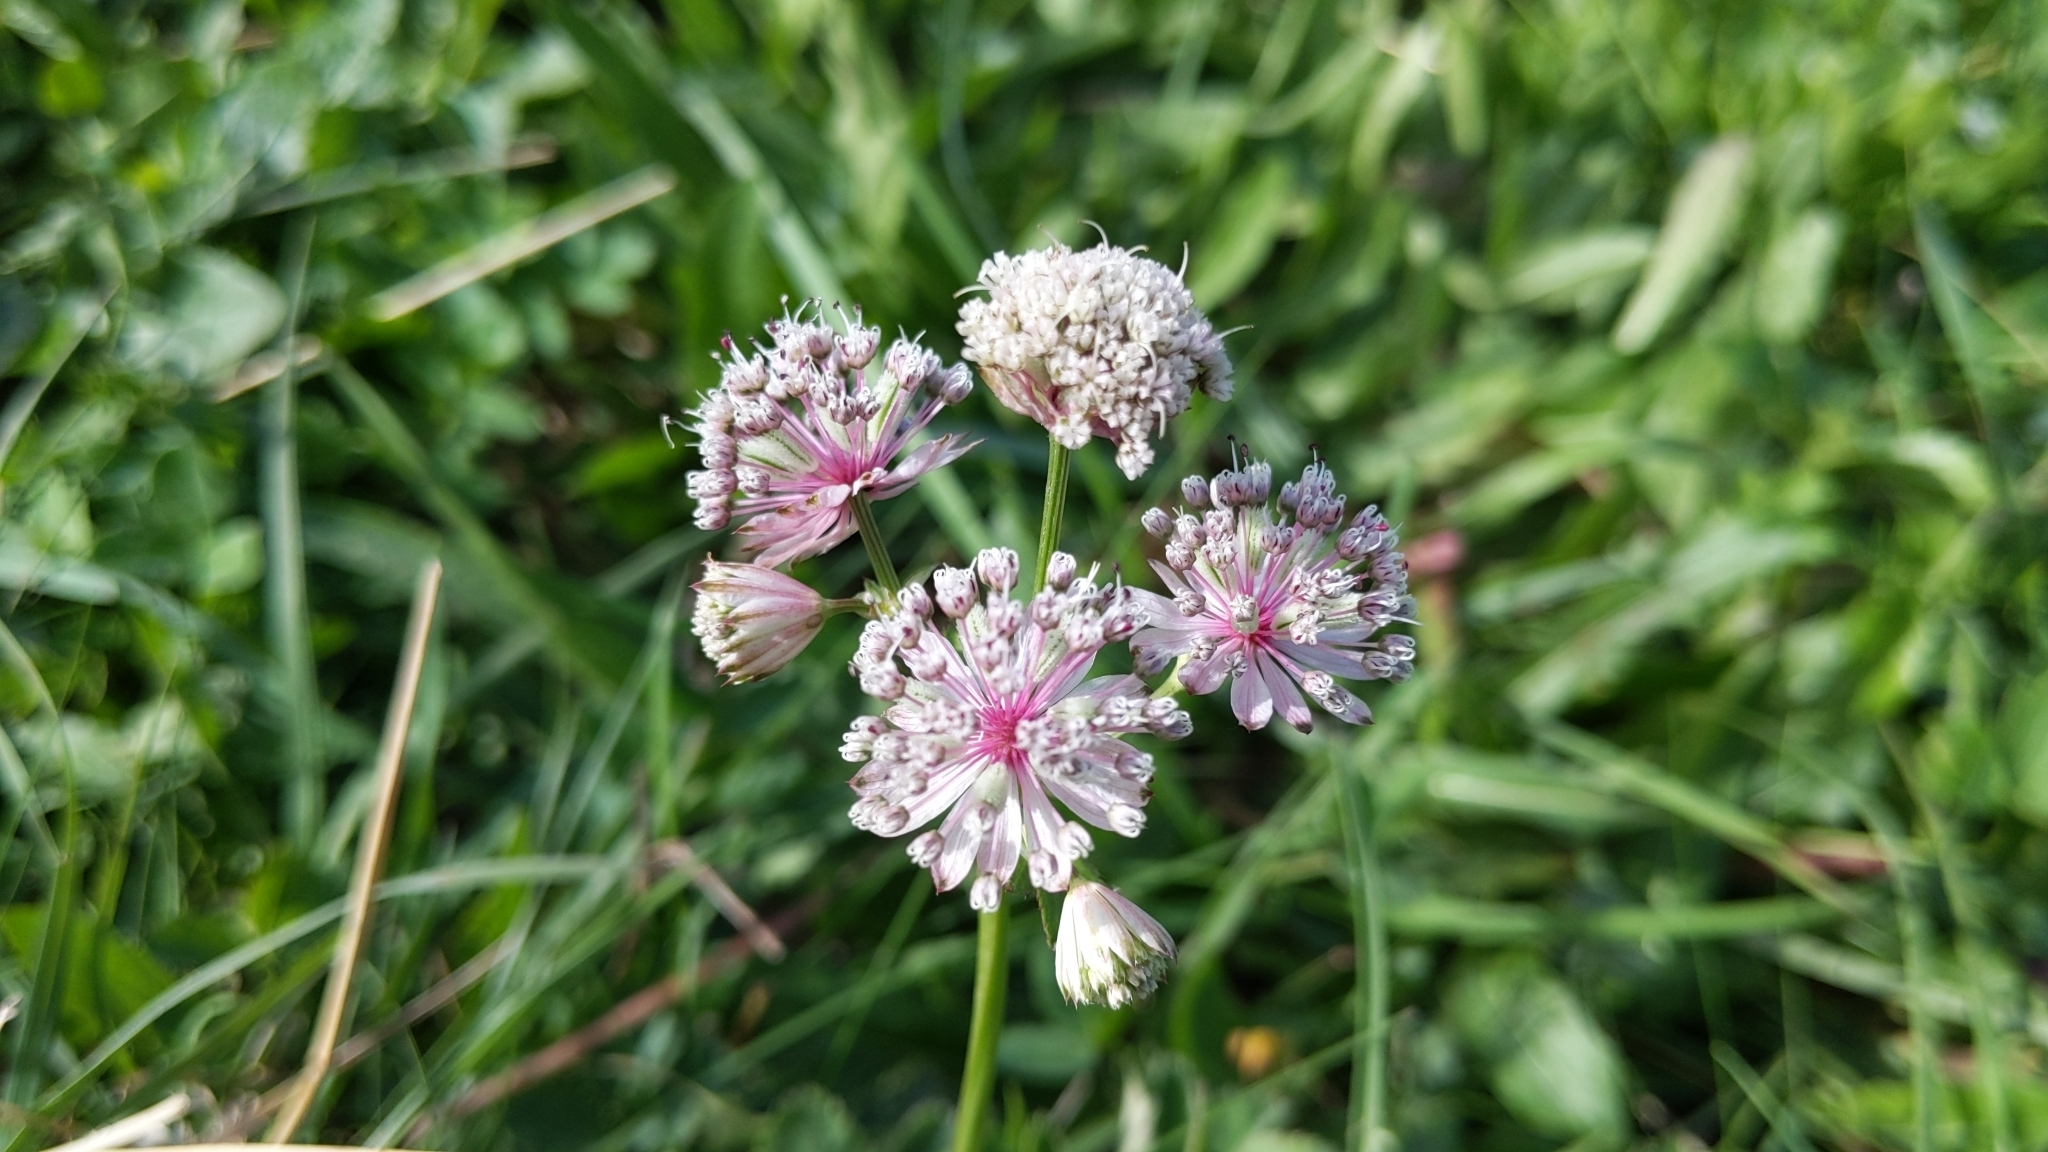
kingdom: Plantae
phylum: Tracheophyta
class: Magnoliopsida
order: Apiales
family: Apiaceae
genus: Astrantia
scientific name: Astrantia major
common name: Greater masterwort
